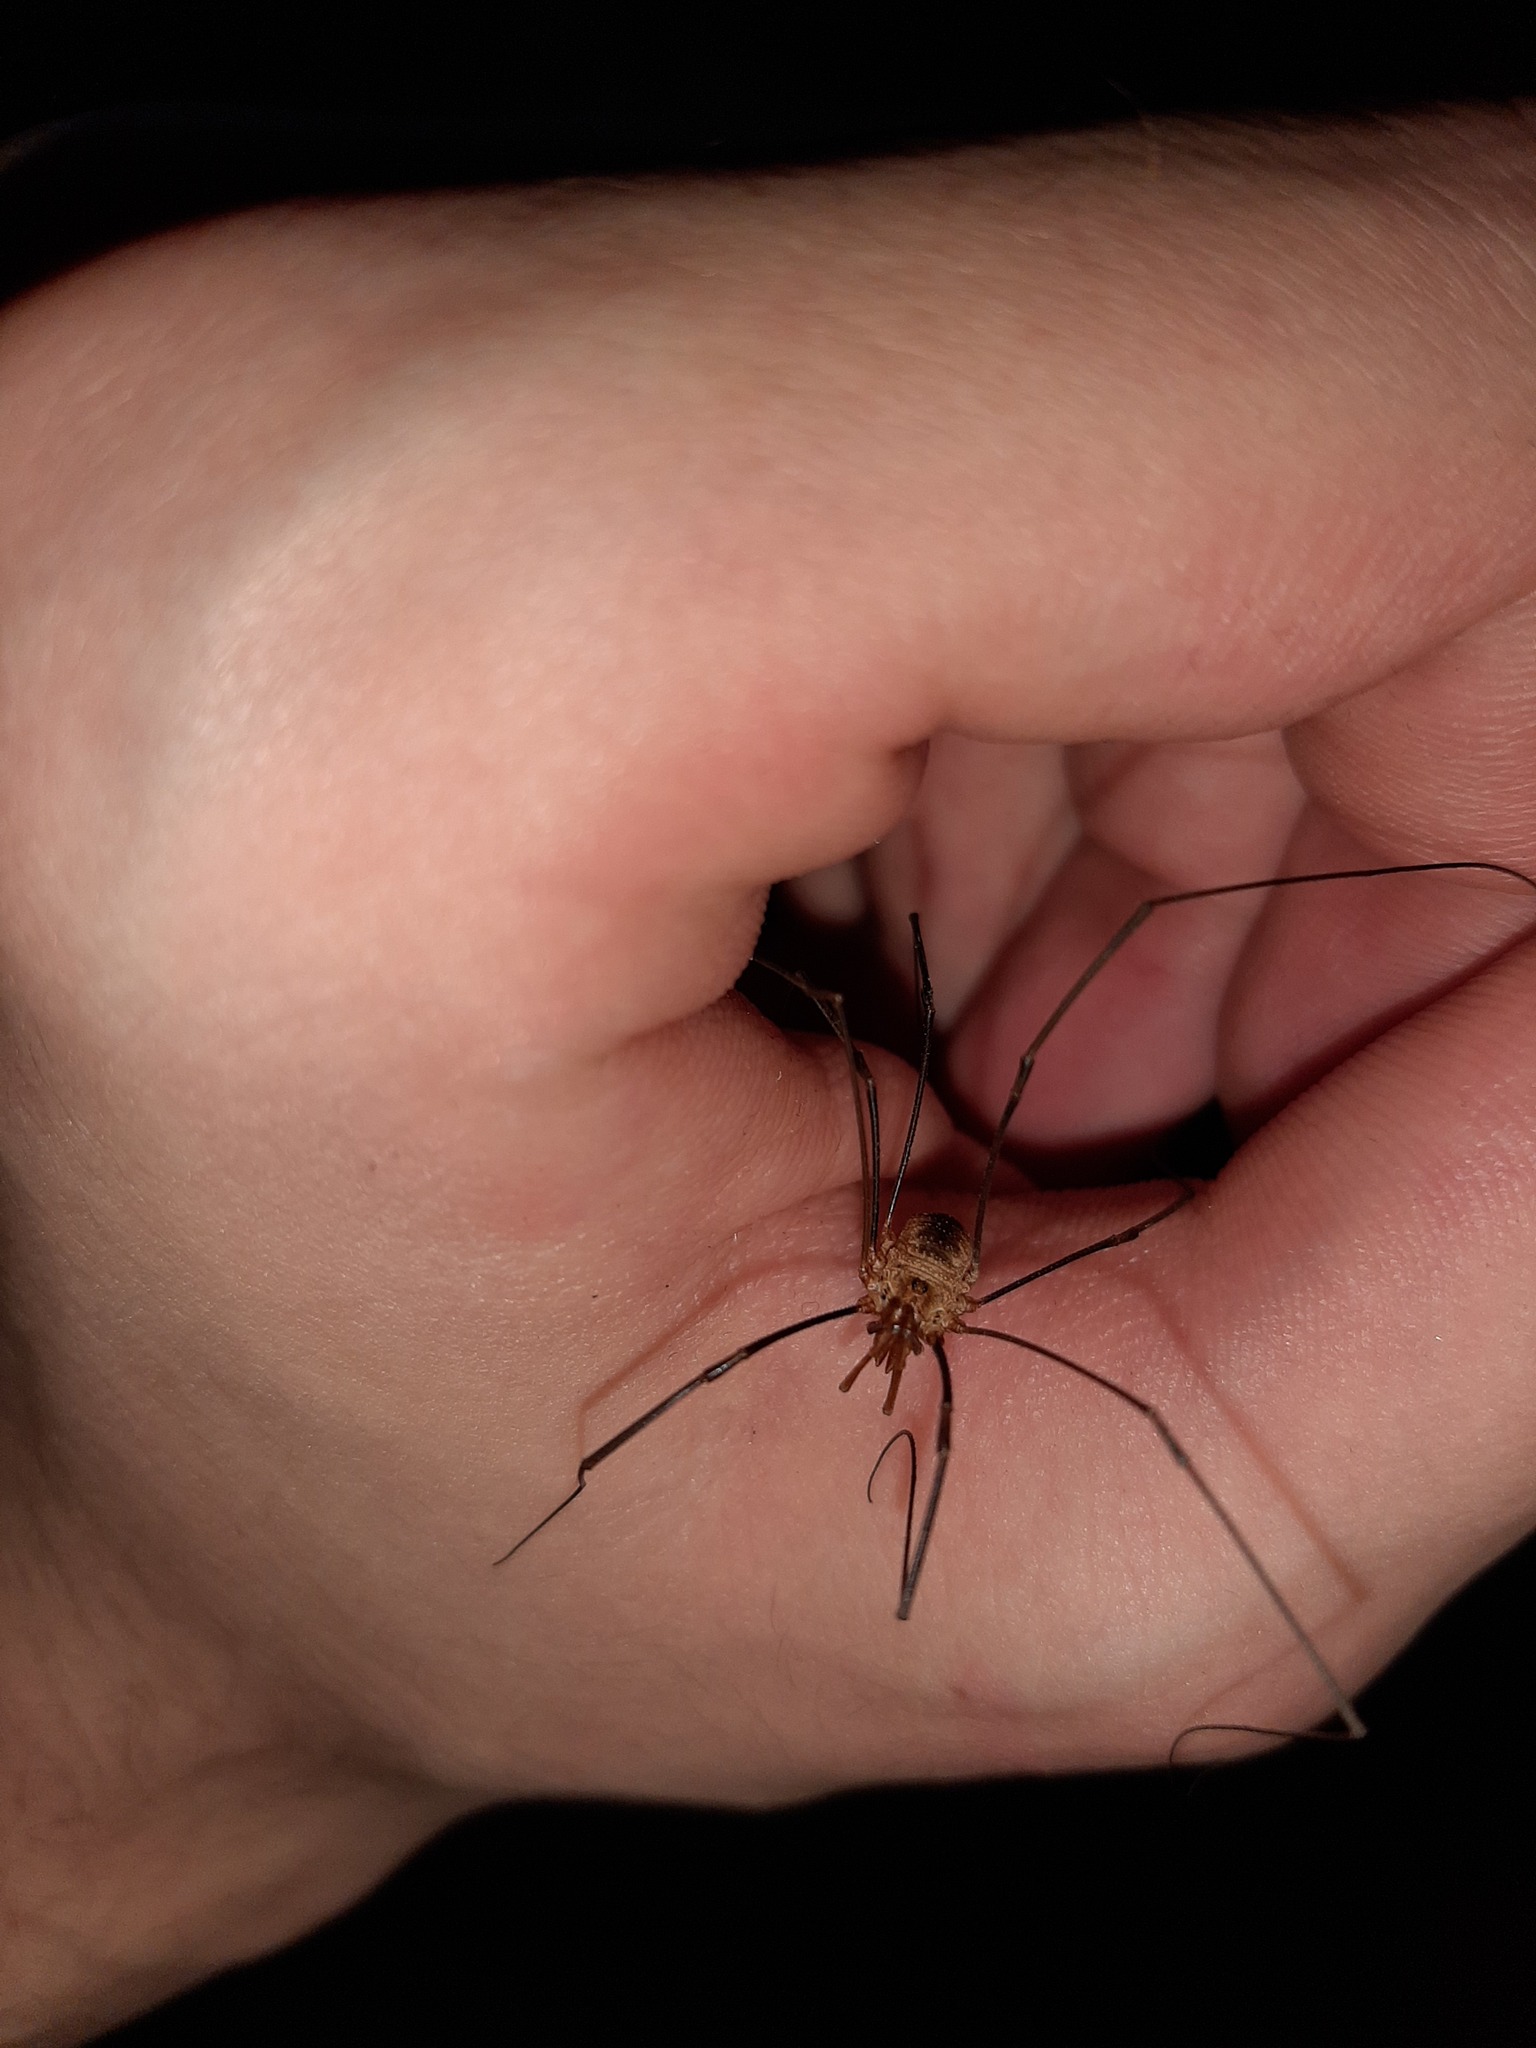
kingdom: Animalia
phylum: Arthropoda
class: Arachnida
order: Opiliones
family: Phalangiidae
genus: Phalangium
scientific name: Phalangium opilio
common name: Daddy longleg
